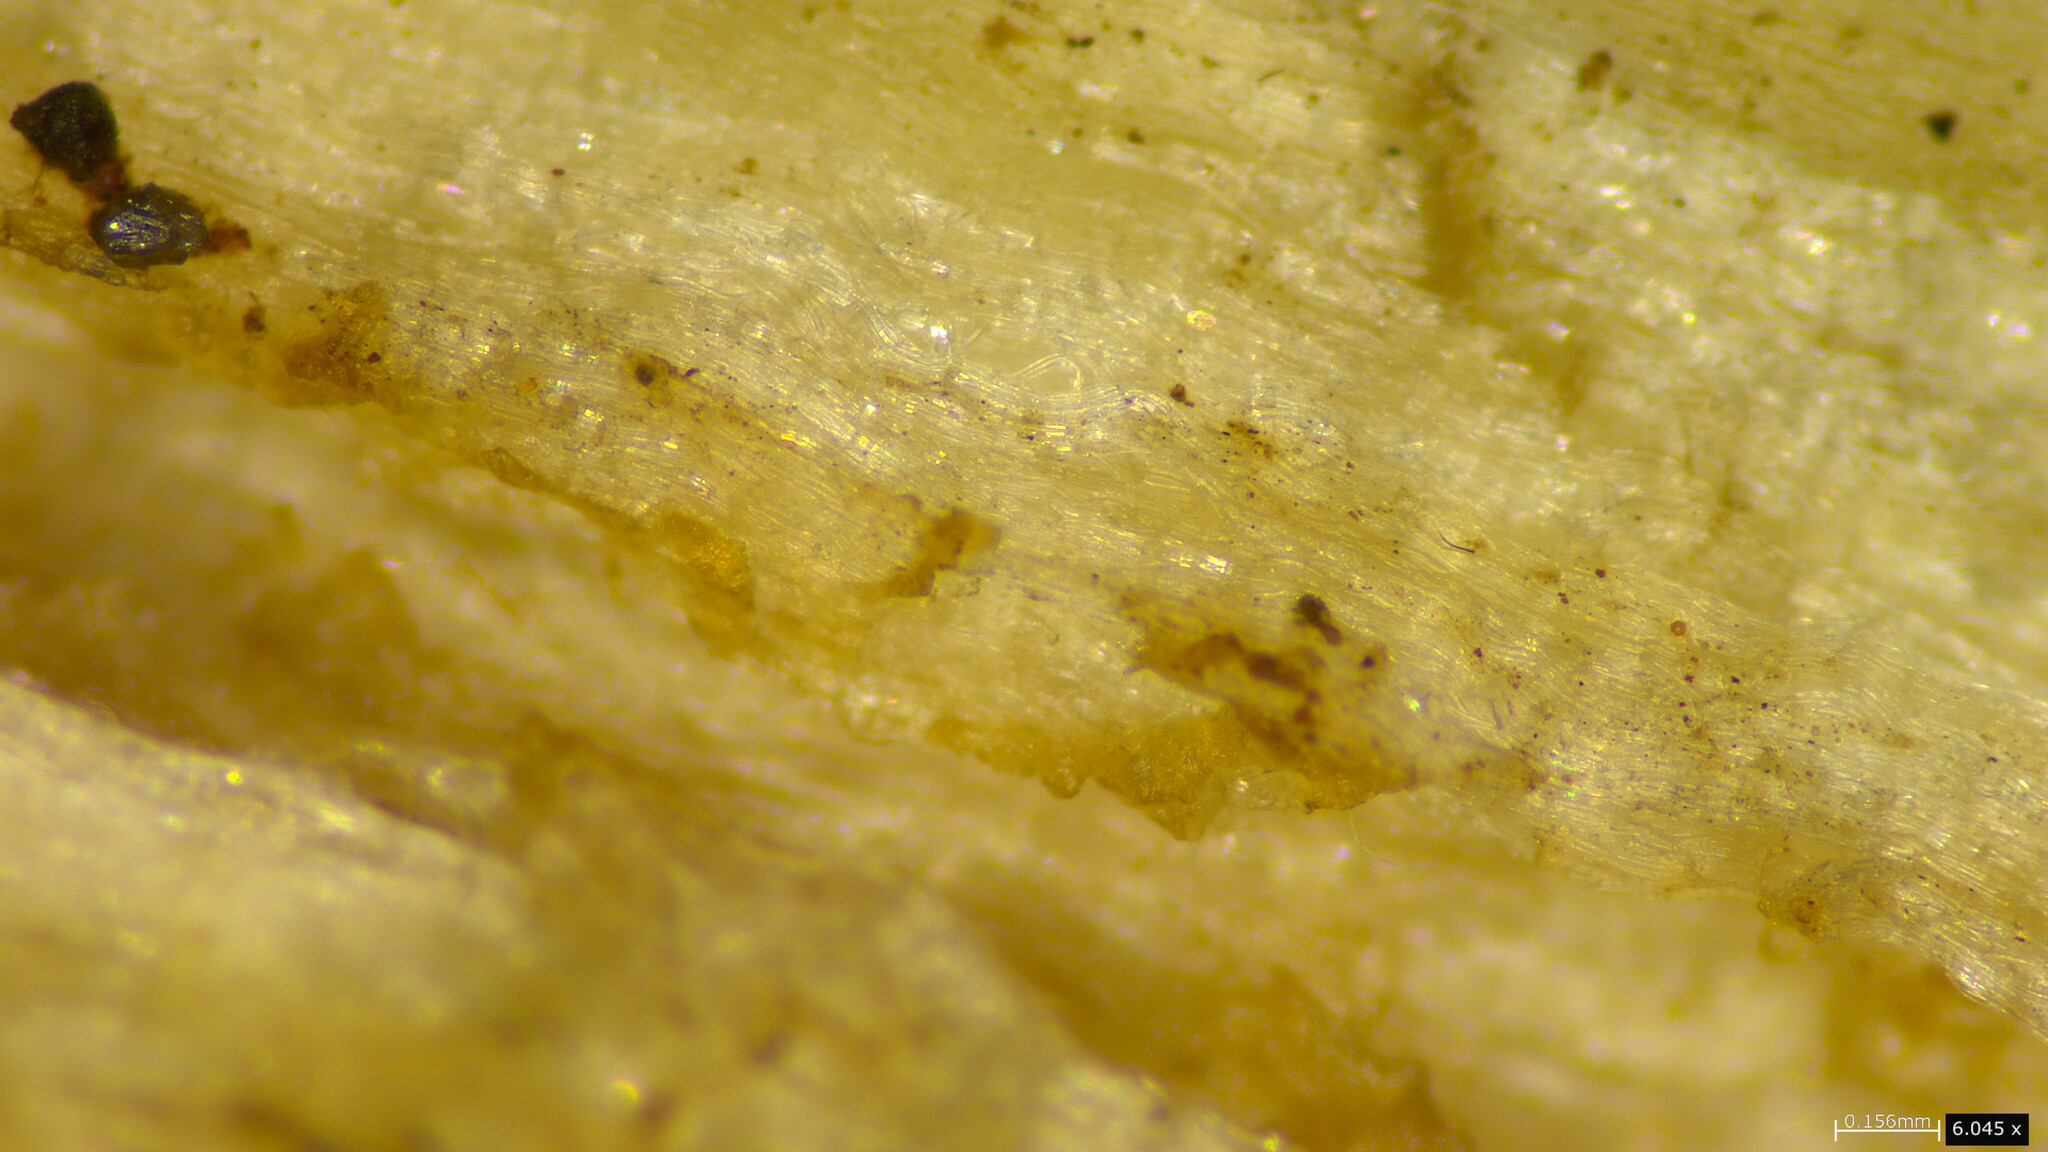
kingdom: Fungi
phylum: Basidiomycota
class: Agaricomycetes
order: Agaricales
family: Tricholomataceae
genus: Tricholosporum
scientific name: Tricholosporum porphyrophyllum
